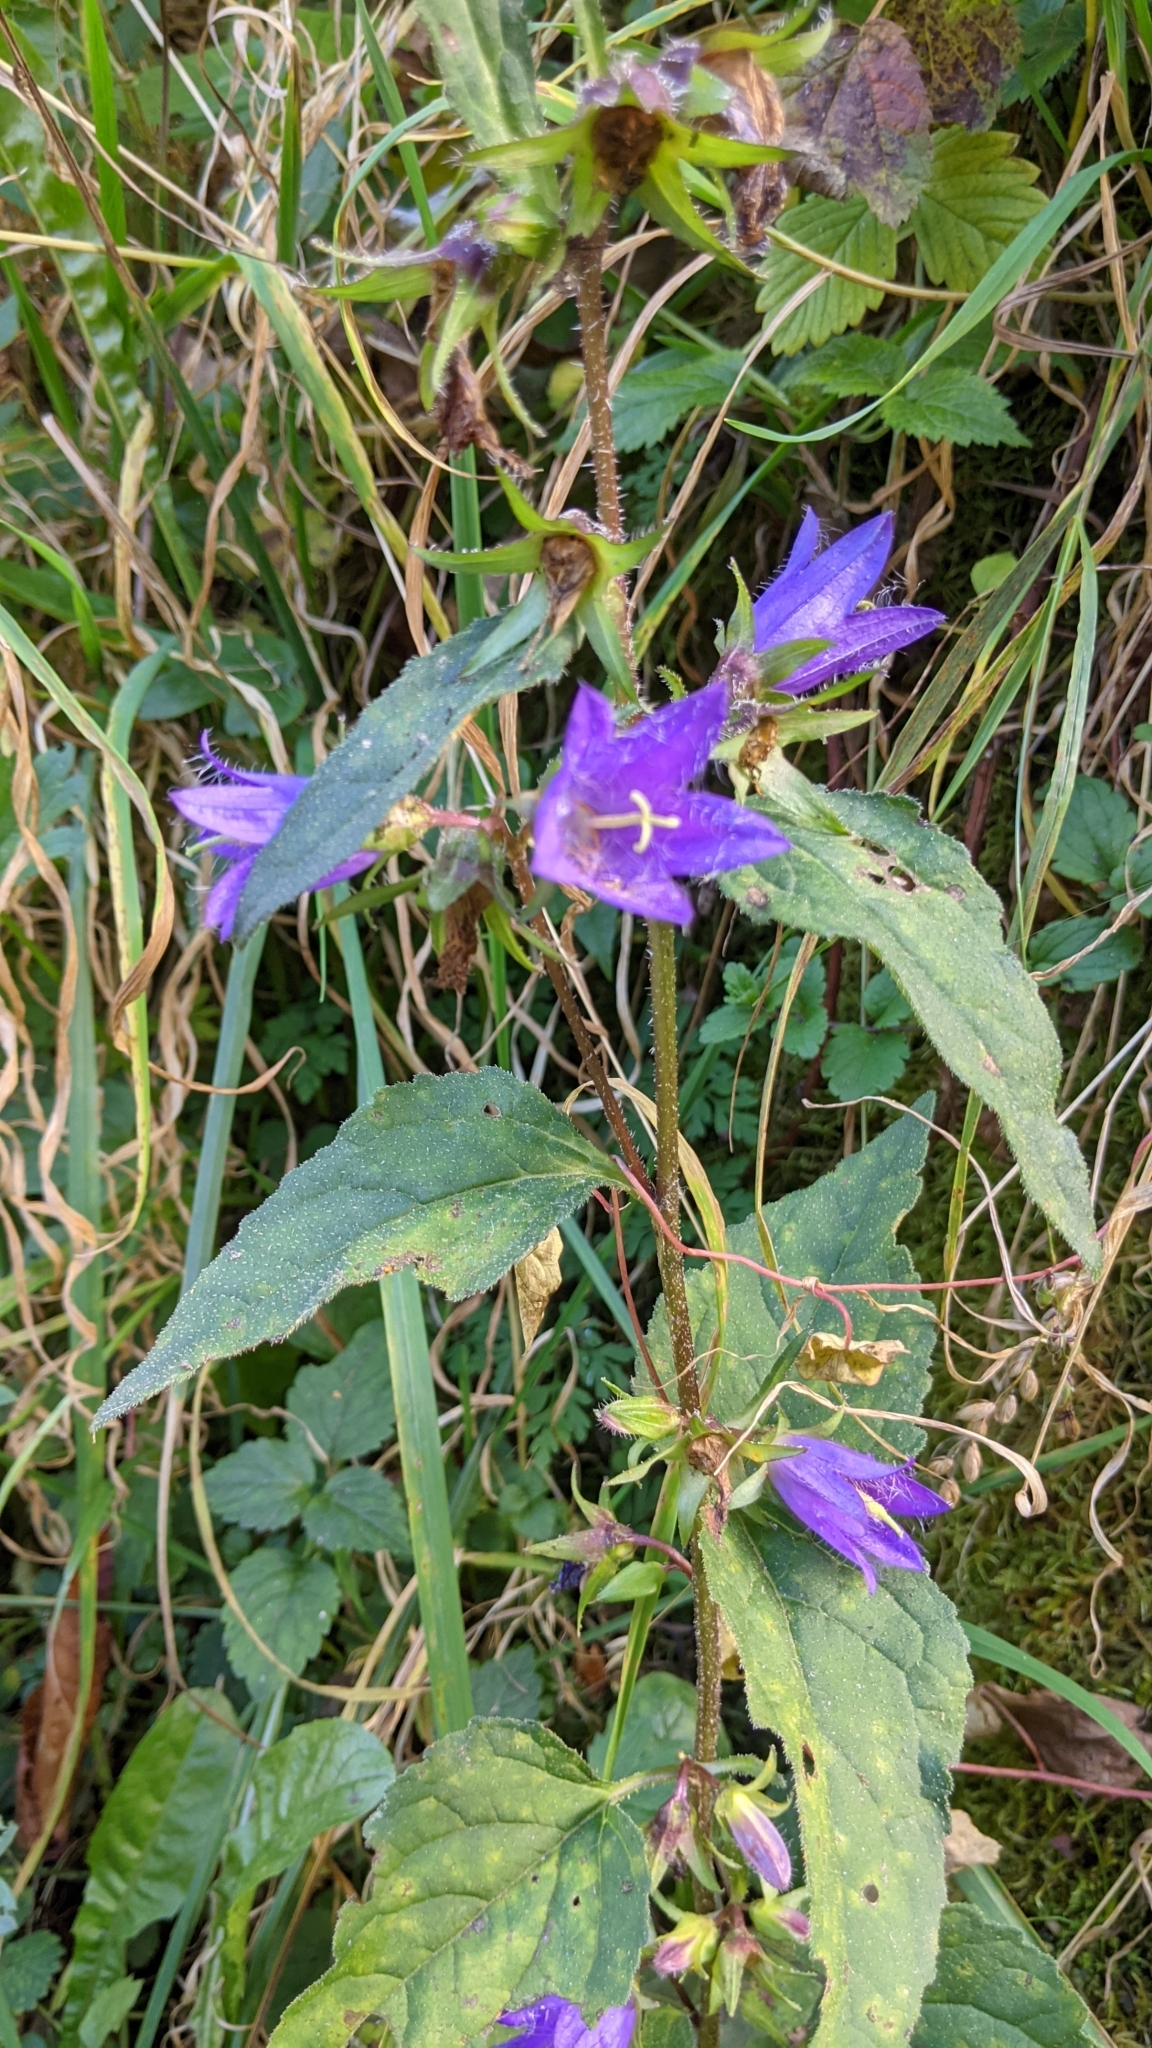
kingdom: Plantae
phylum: Tracheophyta
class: Magnoliopsida
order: Asterales
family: Campanulaceae
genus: Campanula
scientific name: Campanula trachelium
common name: Nettle-leaved bellflower
